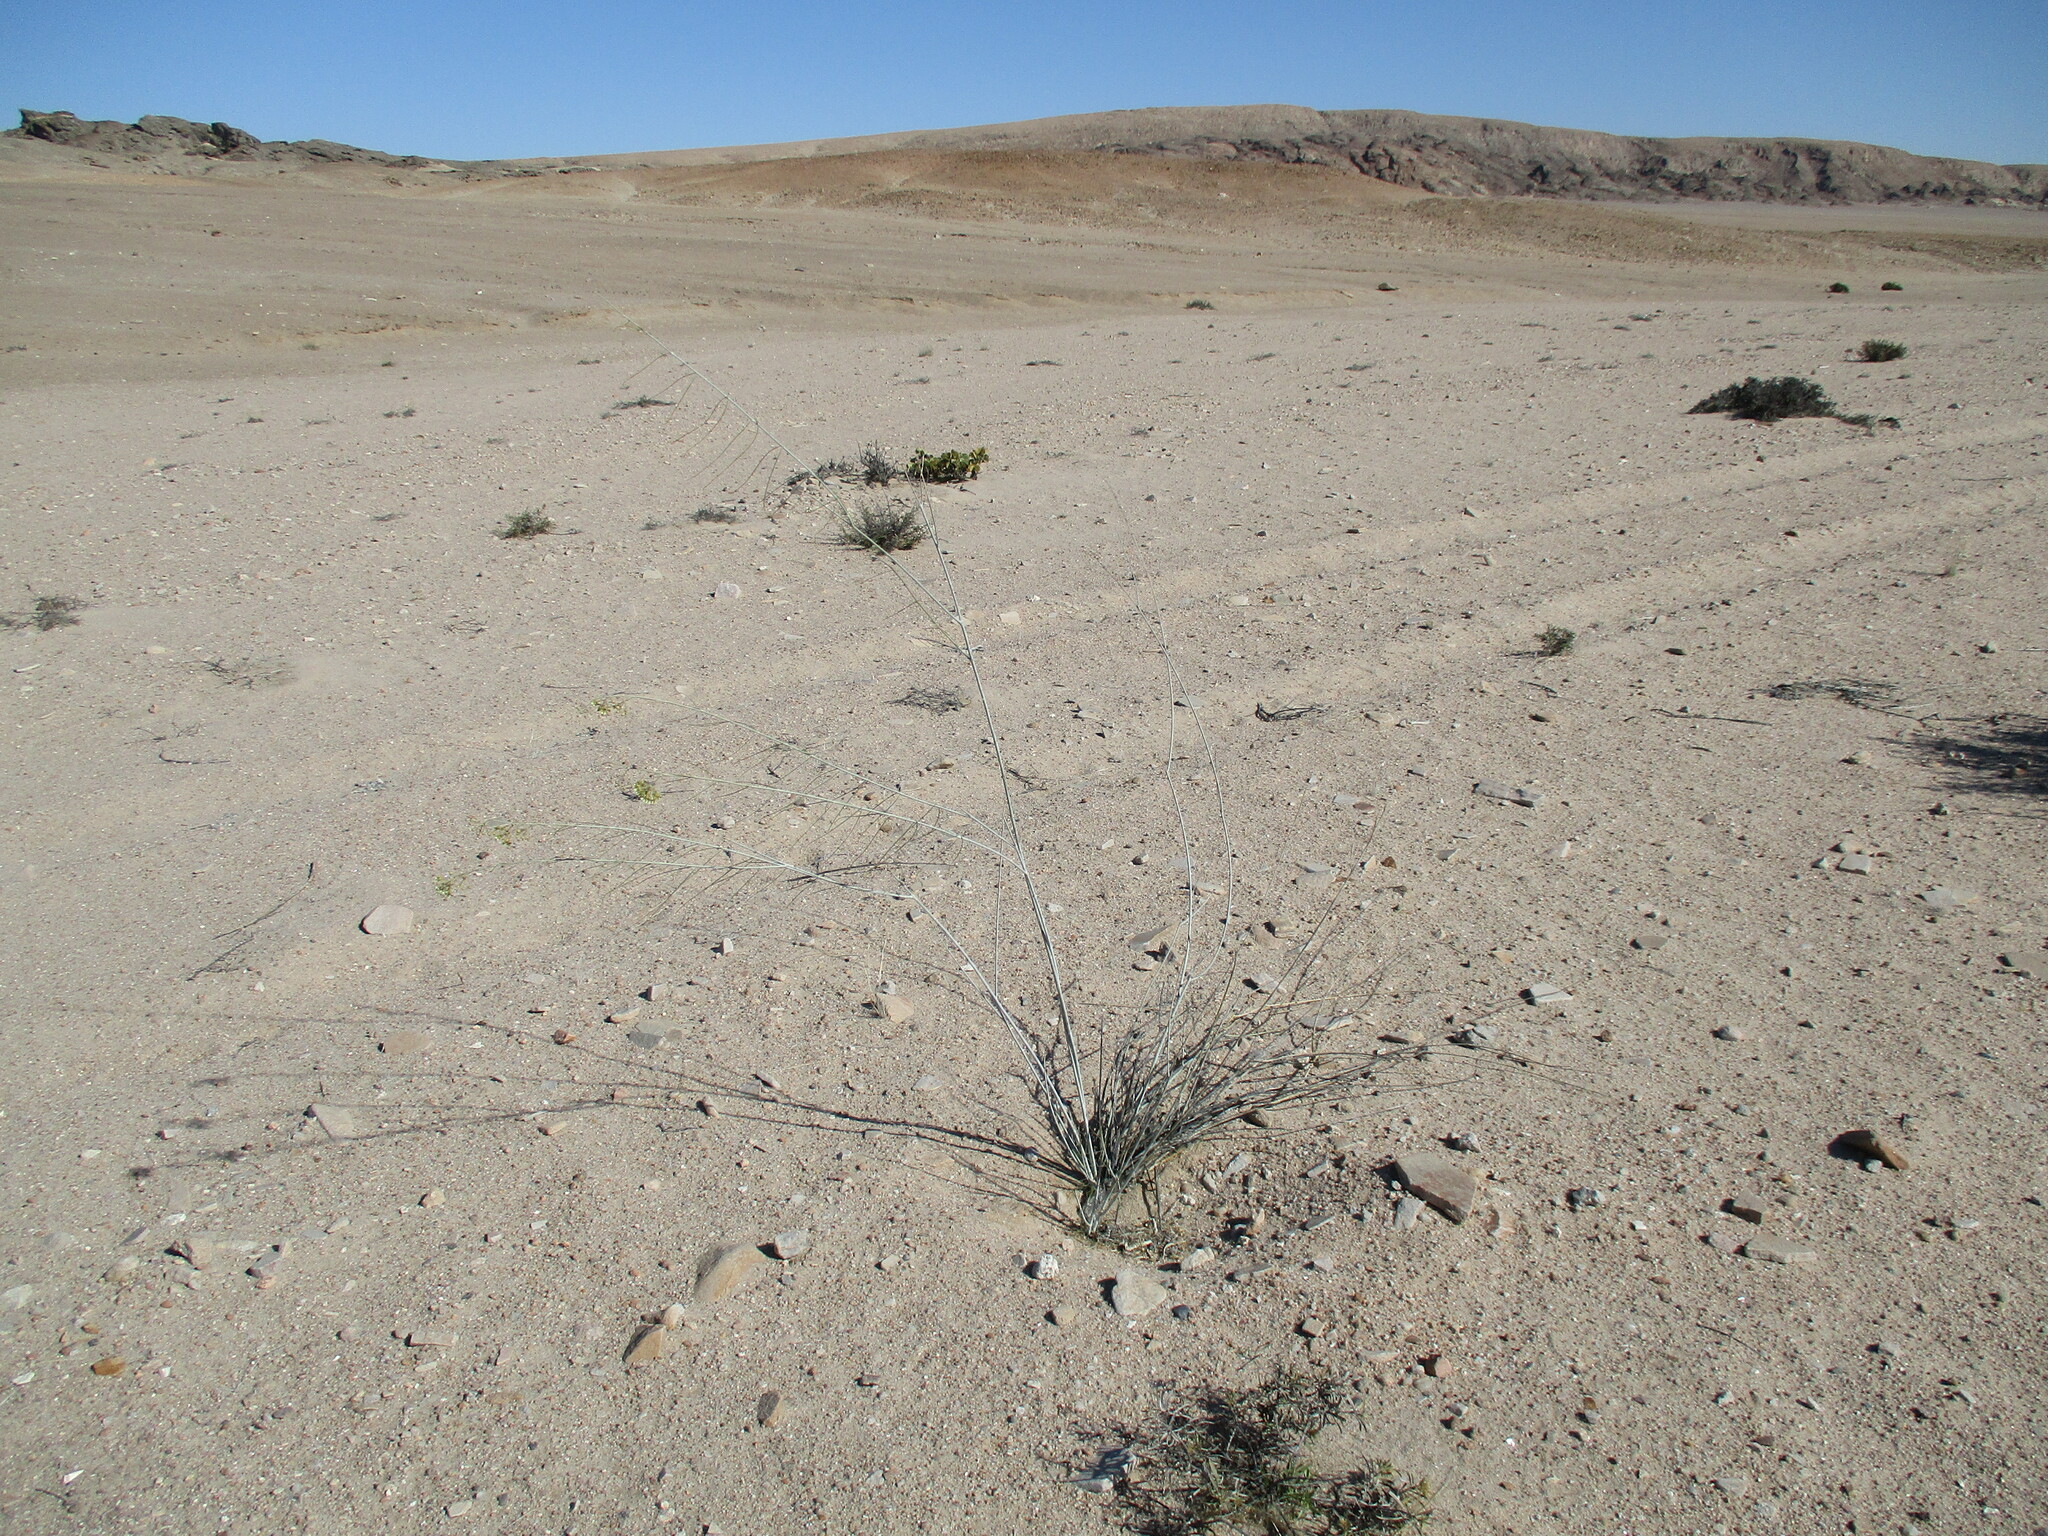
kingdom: Plantae
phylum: Tracheophyta
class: Magnoliopsida
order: Gentianales
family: Apocynaceae
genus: Gomphocarpus
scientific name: Gomphocarpus filiformis
